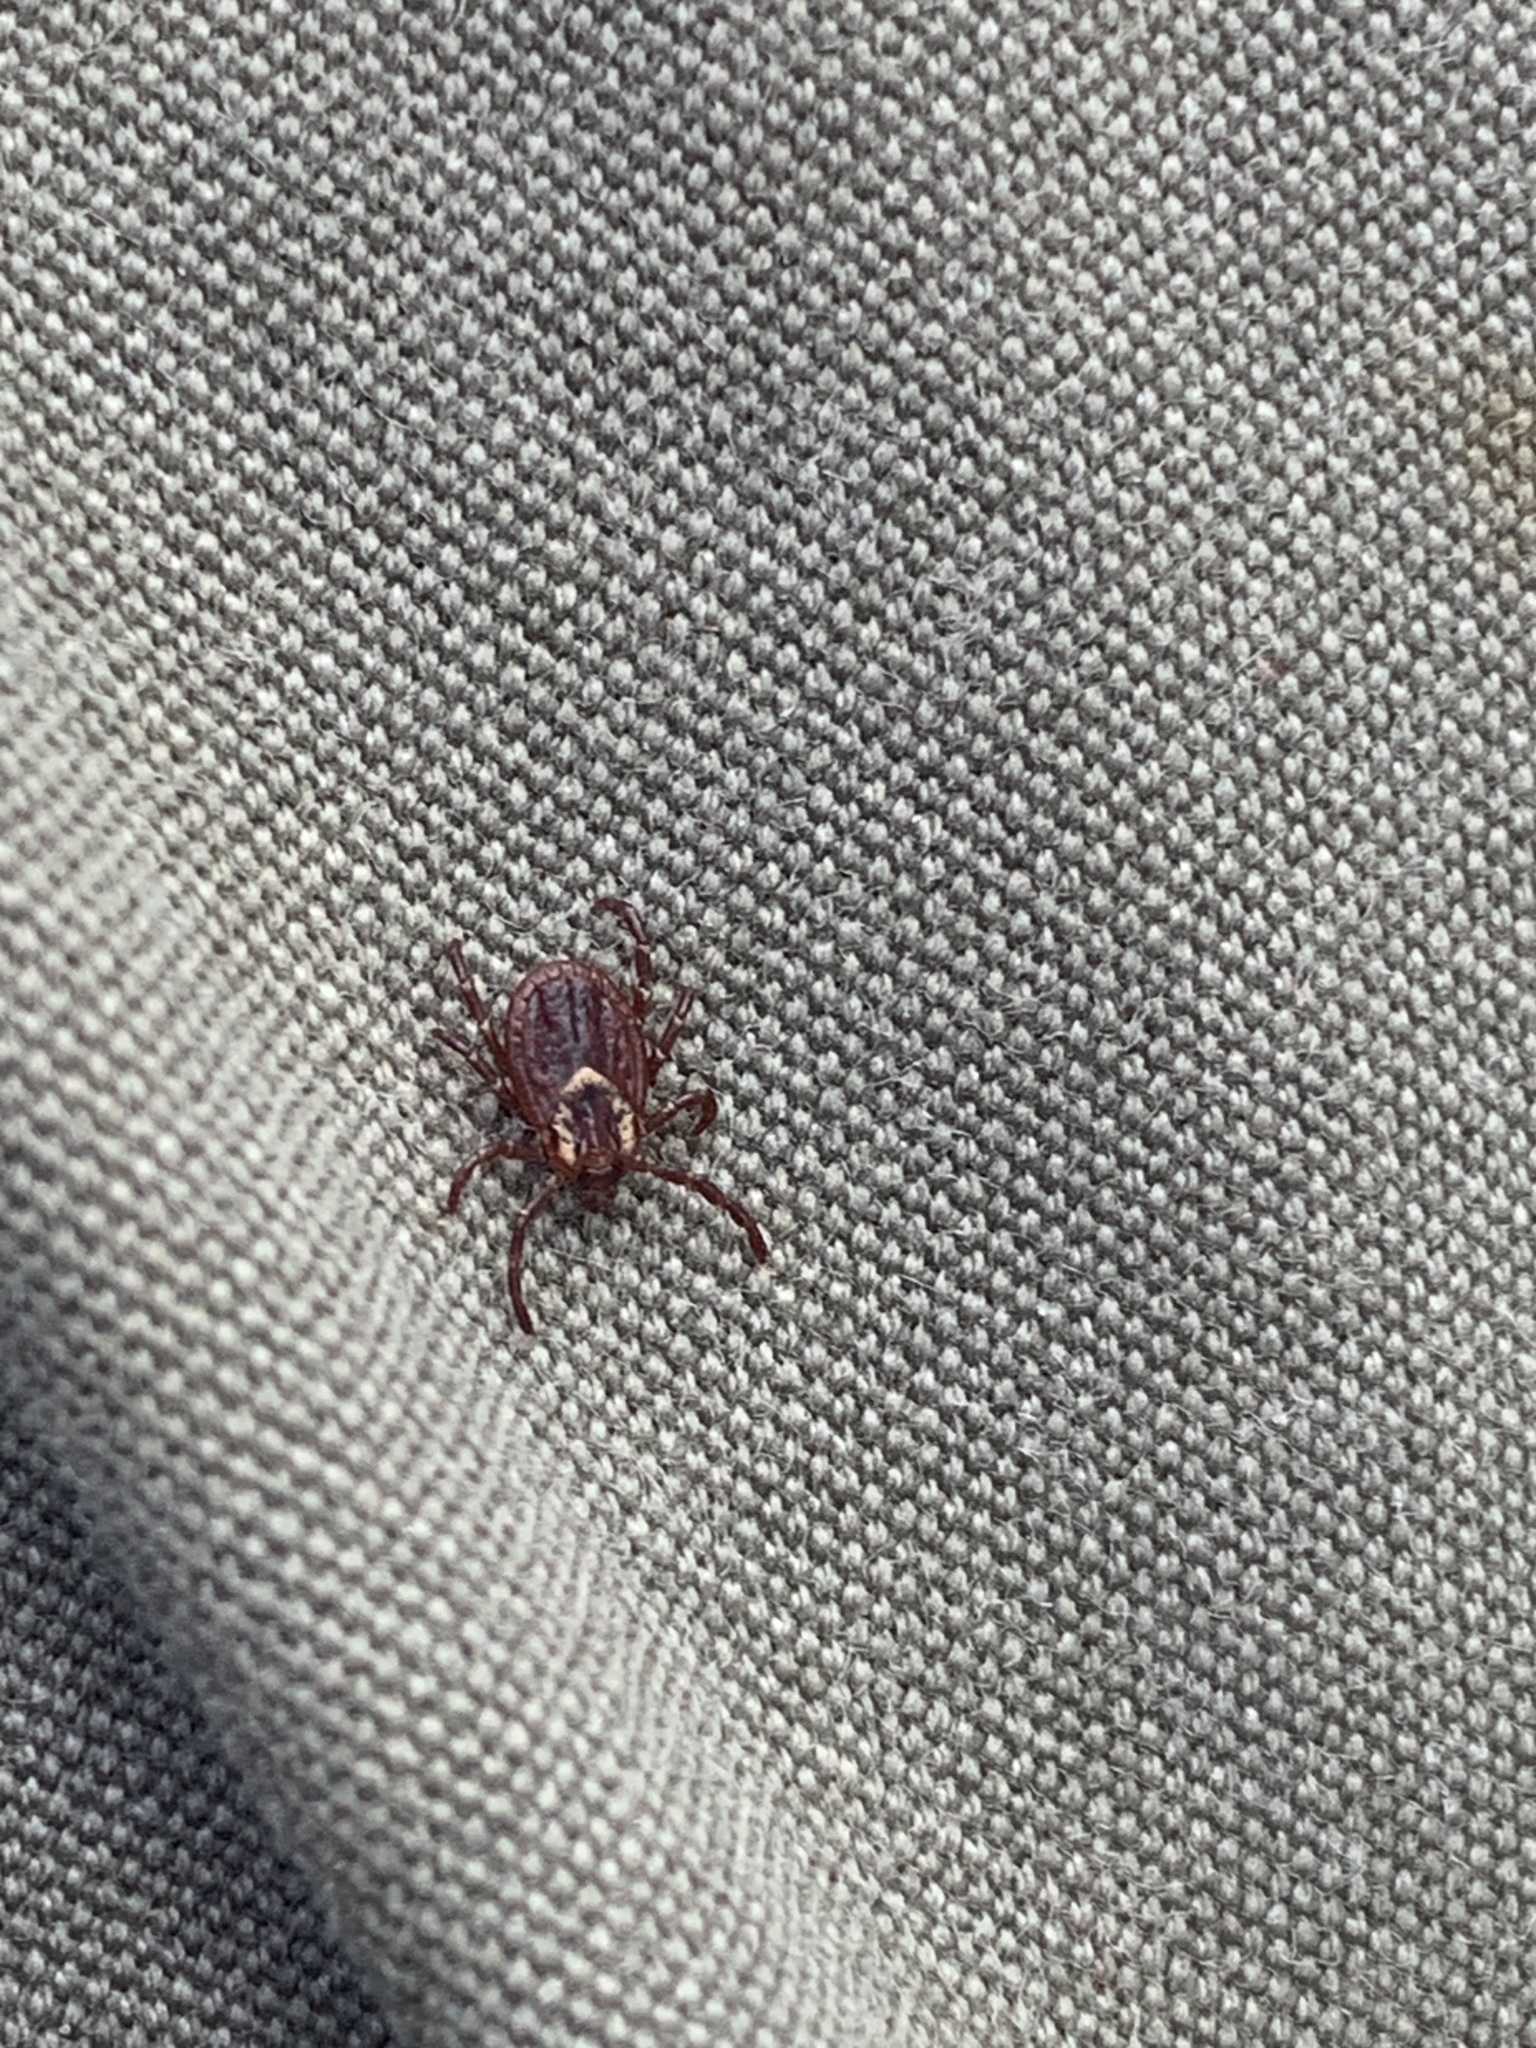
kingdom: Animalia
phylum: Arthropoda
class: Arachnida
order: Ixodida
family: Ixodidae
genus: Dermacentor
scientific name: Dermacentor variabilis
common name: American dog tick
